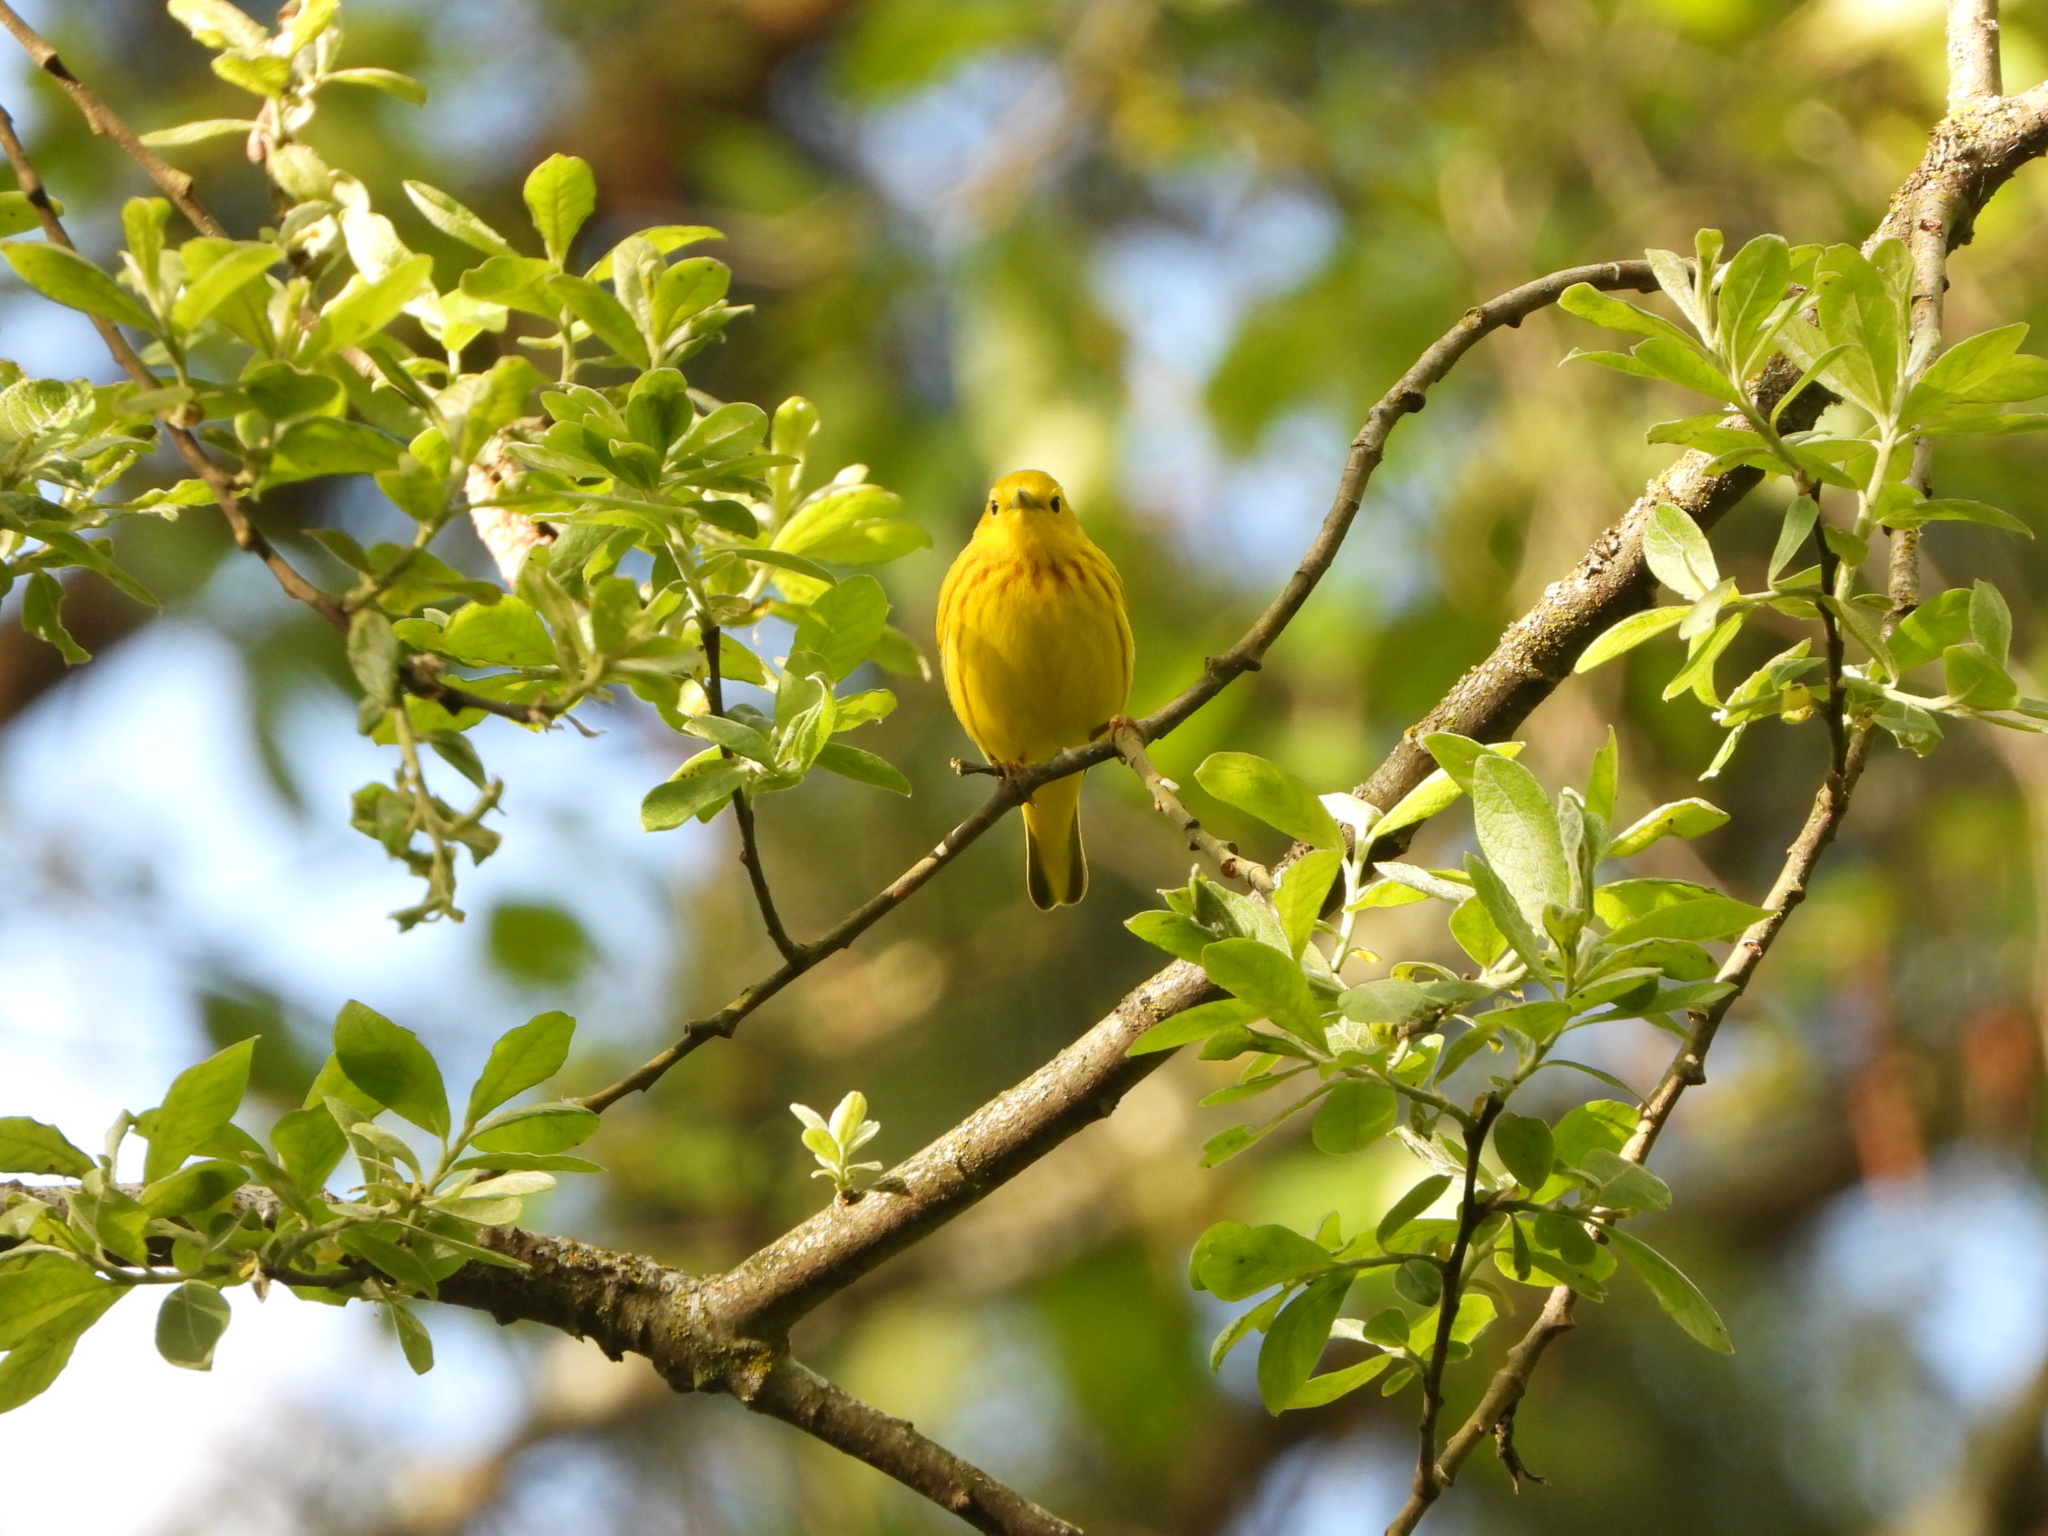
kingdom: Animalia
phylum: Chordata
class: Aves
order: Passeriformes
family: Parulidae
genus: Setophaga
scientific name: Setophaga petechia
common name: Yellow warbler
